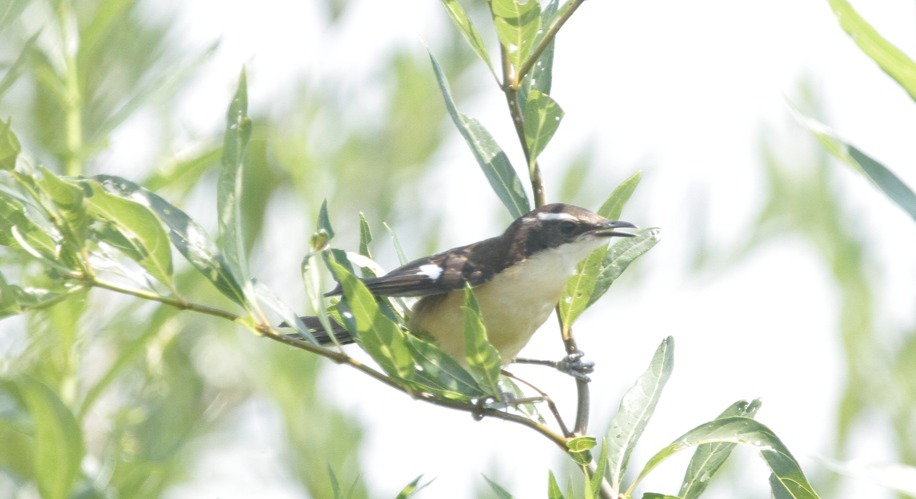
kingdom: Animalia
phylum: Chordata
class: Aves
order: Passeriformes
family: Donacobiidae
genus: Donacobius
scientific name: Donacobius atricapilla
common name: Black-capped donacobius
